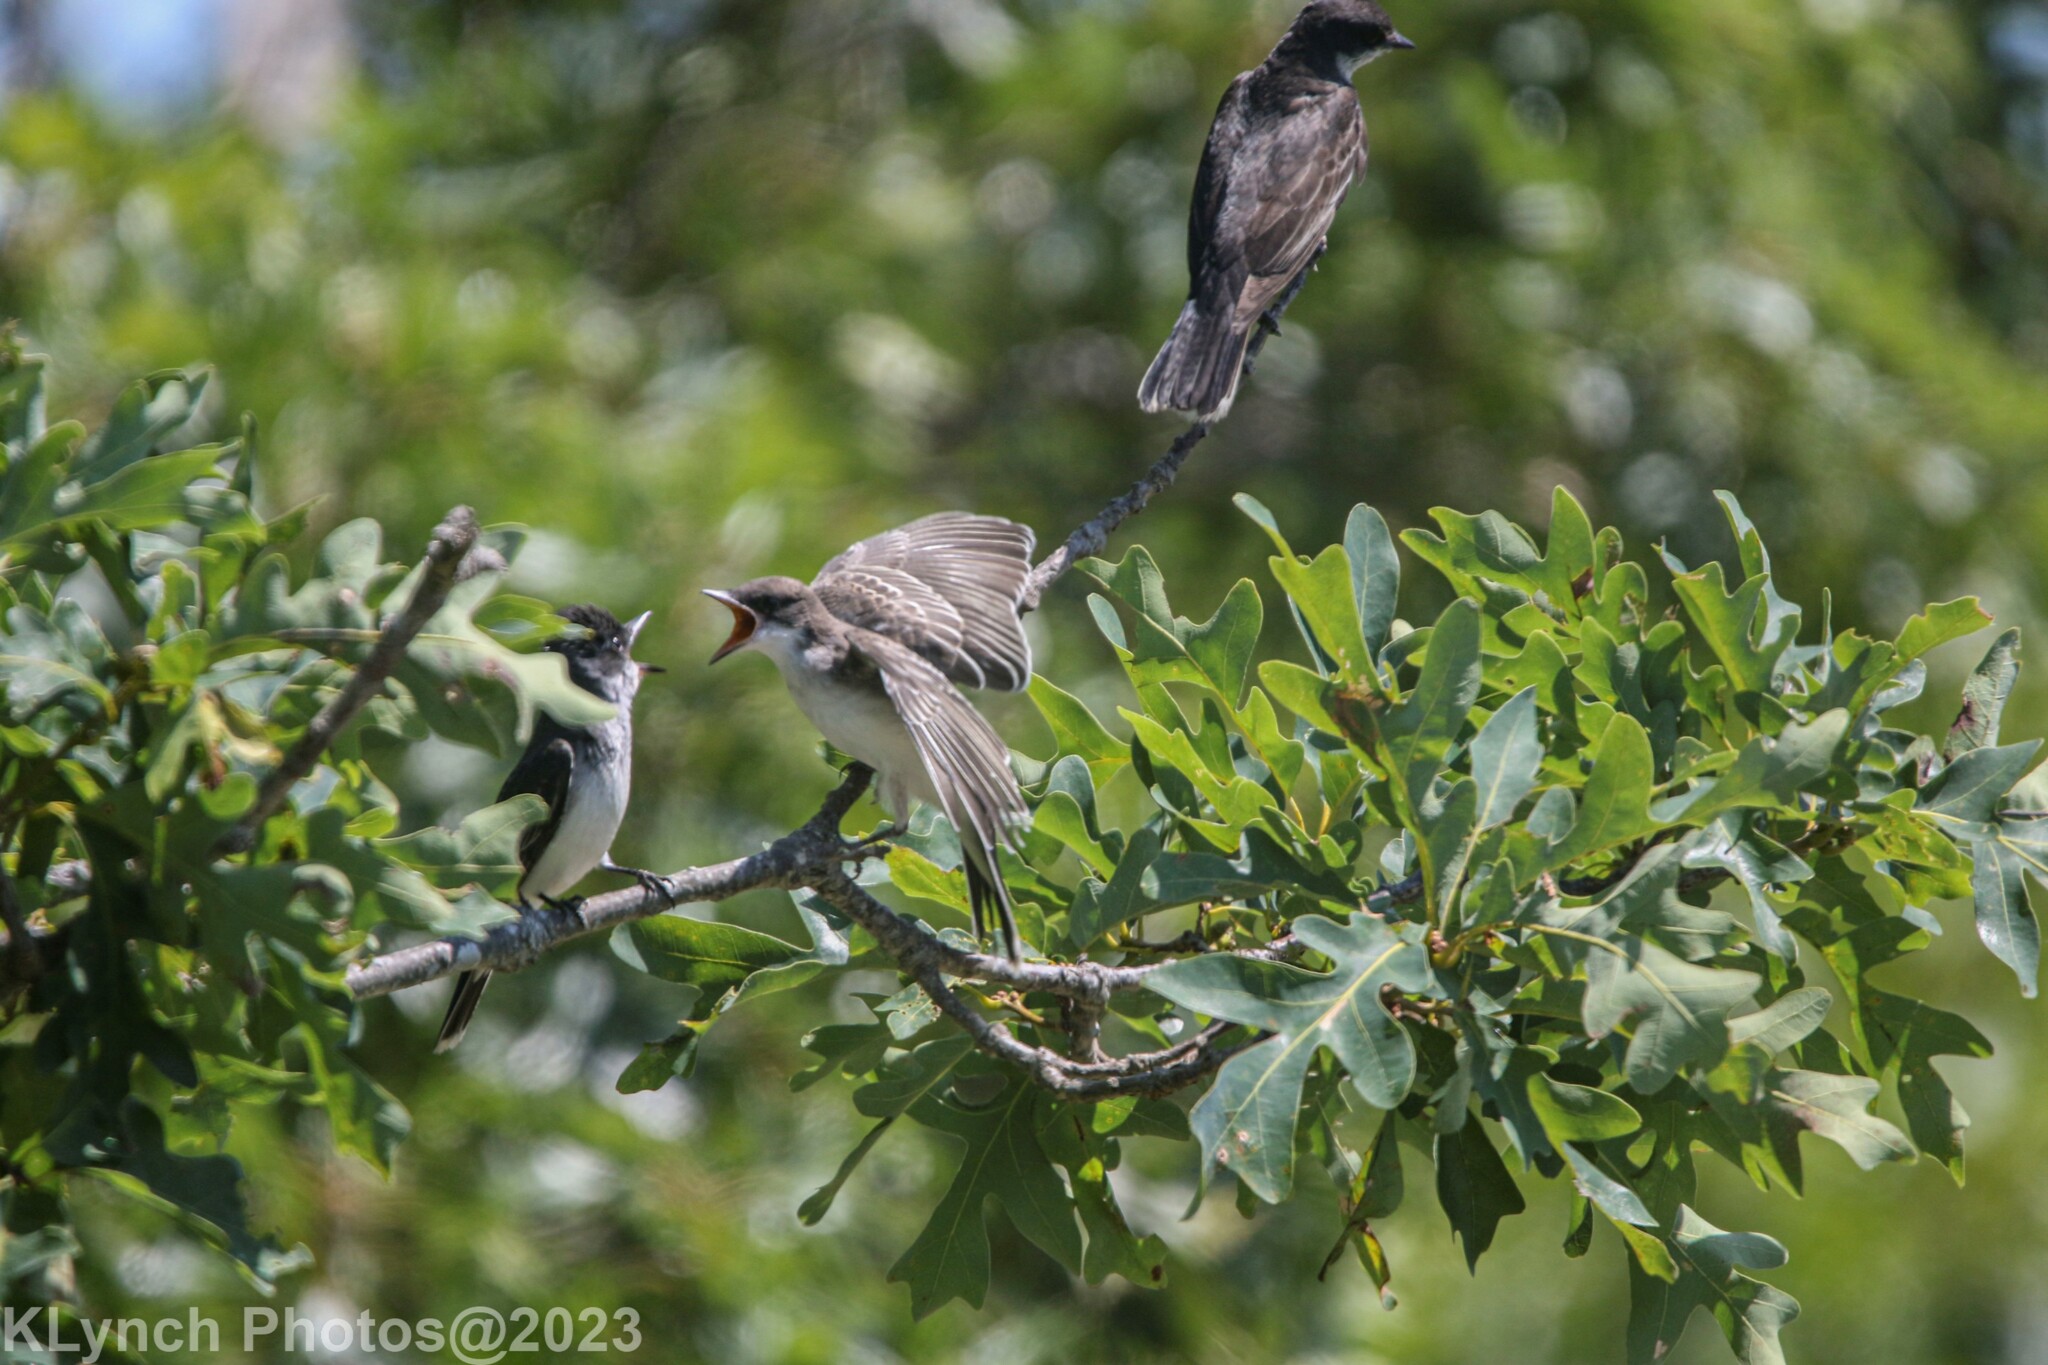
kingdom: Animalia
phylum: Chordata
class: Aves
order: Passeriformes
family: Tyrannidae
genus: Tyrannus
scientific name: Tyrannus tyrannus
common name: Eastern kingbird
